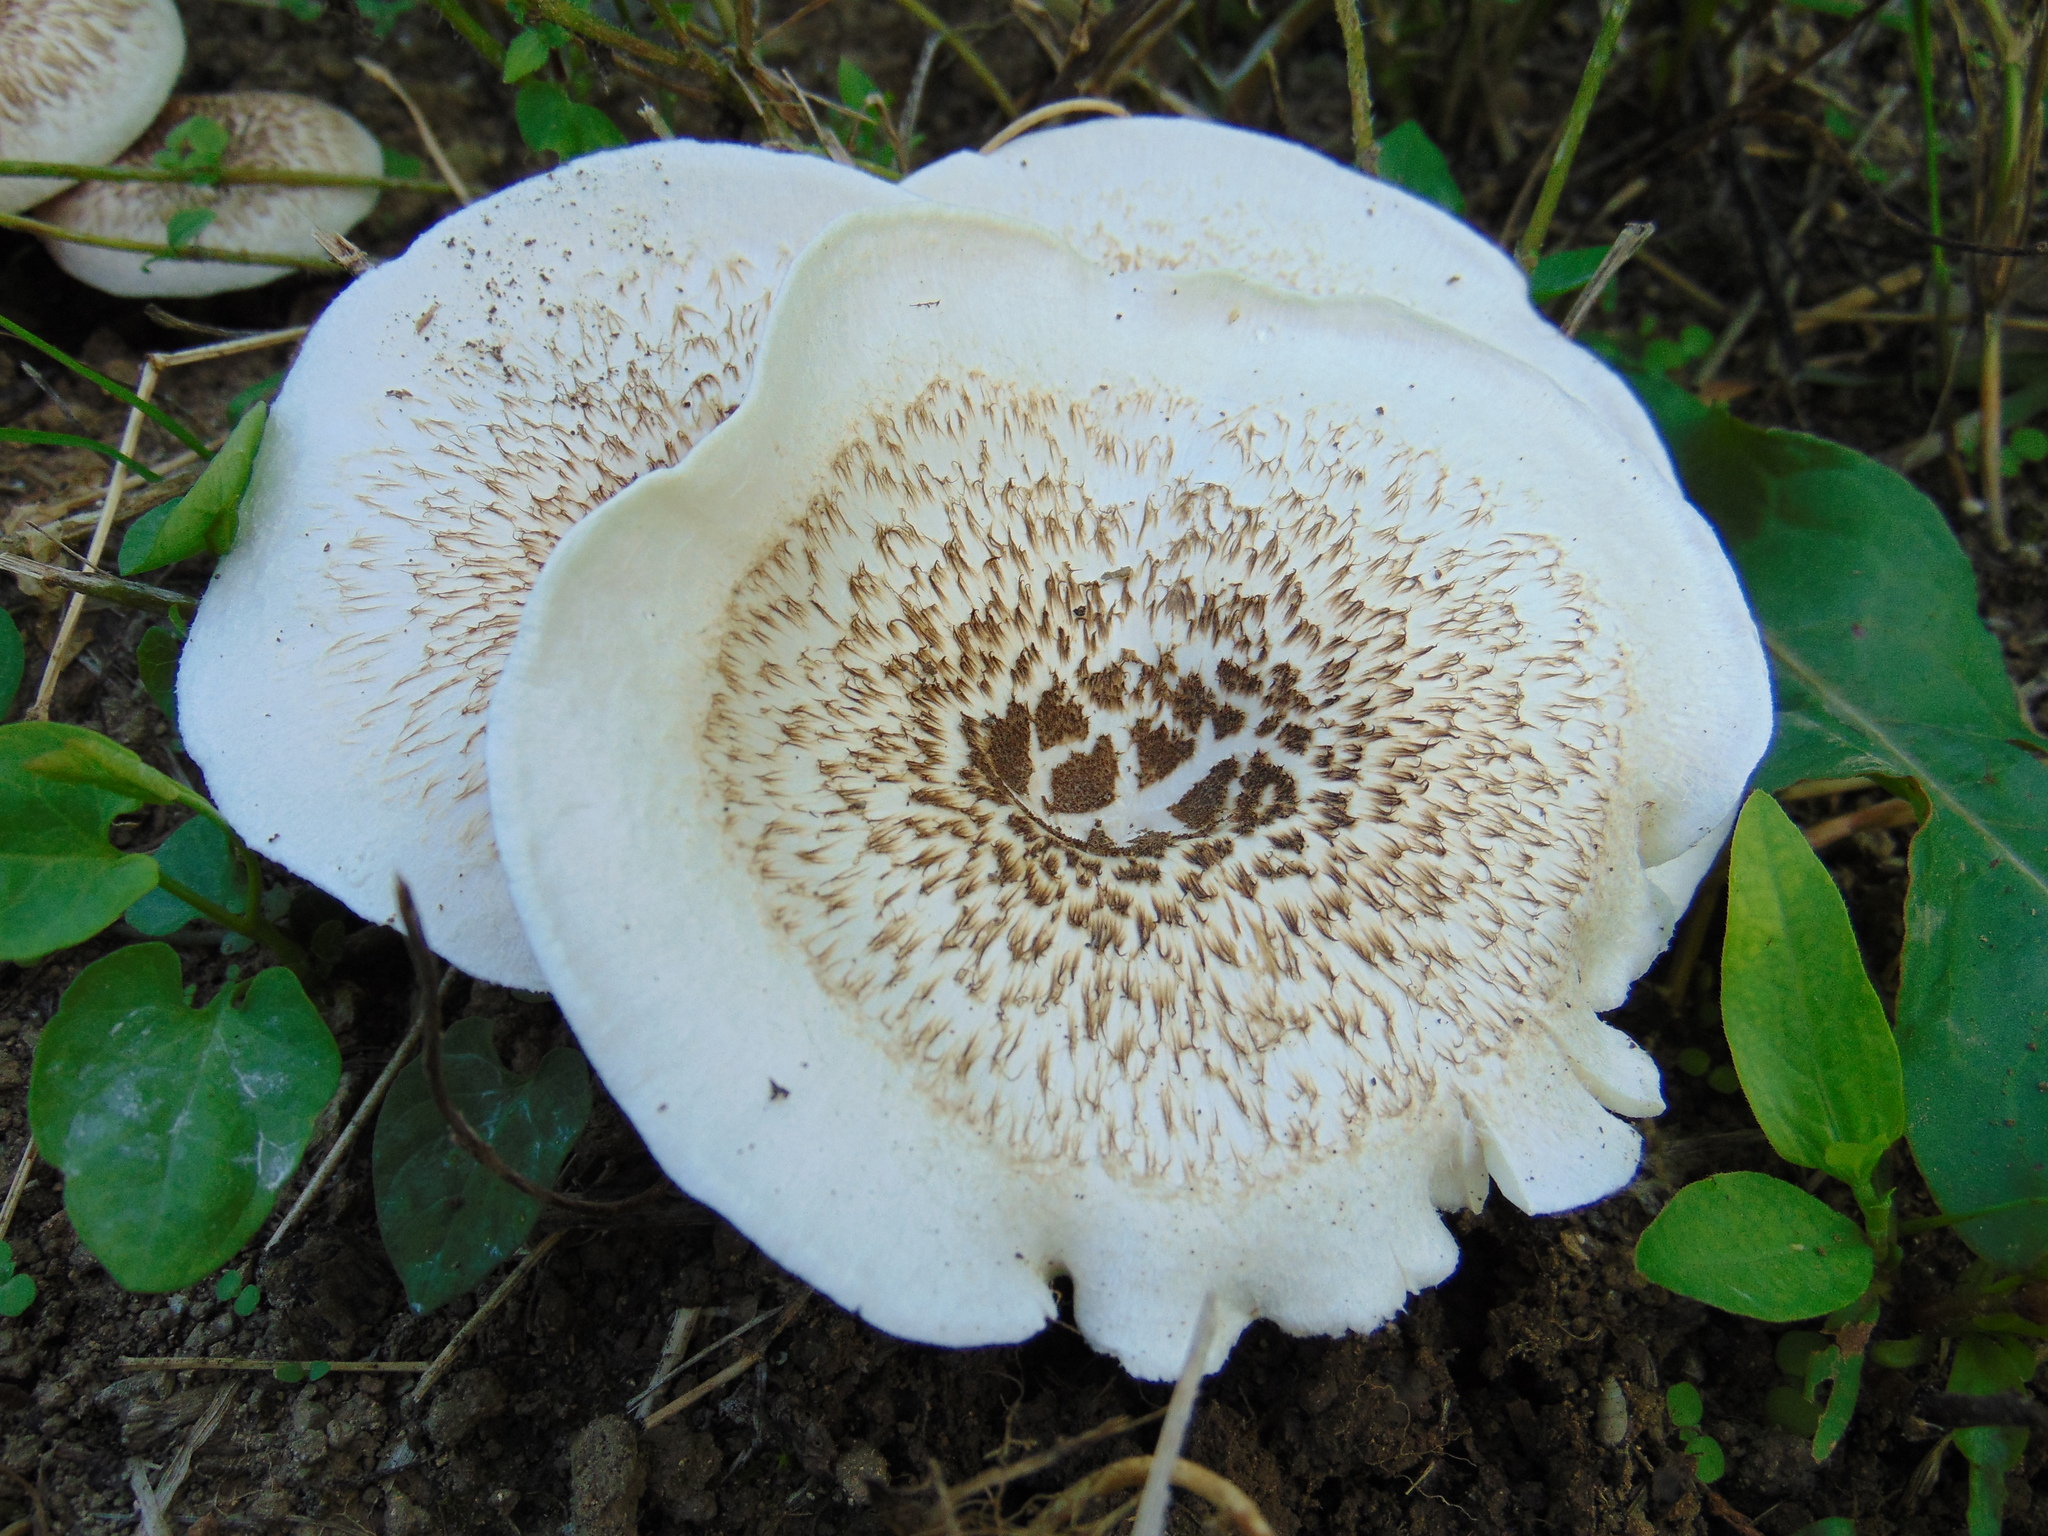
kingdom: Fungi
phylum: Basidiomycota
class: Agaricomycetes
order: Polyporales
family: Polyporaceae
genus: Lentinus
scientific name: Lentinus tigrinus
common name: Tiger sawgill
